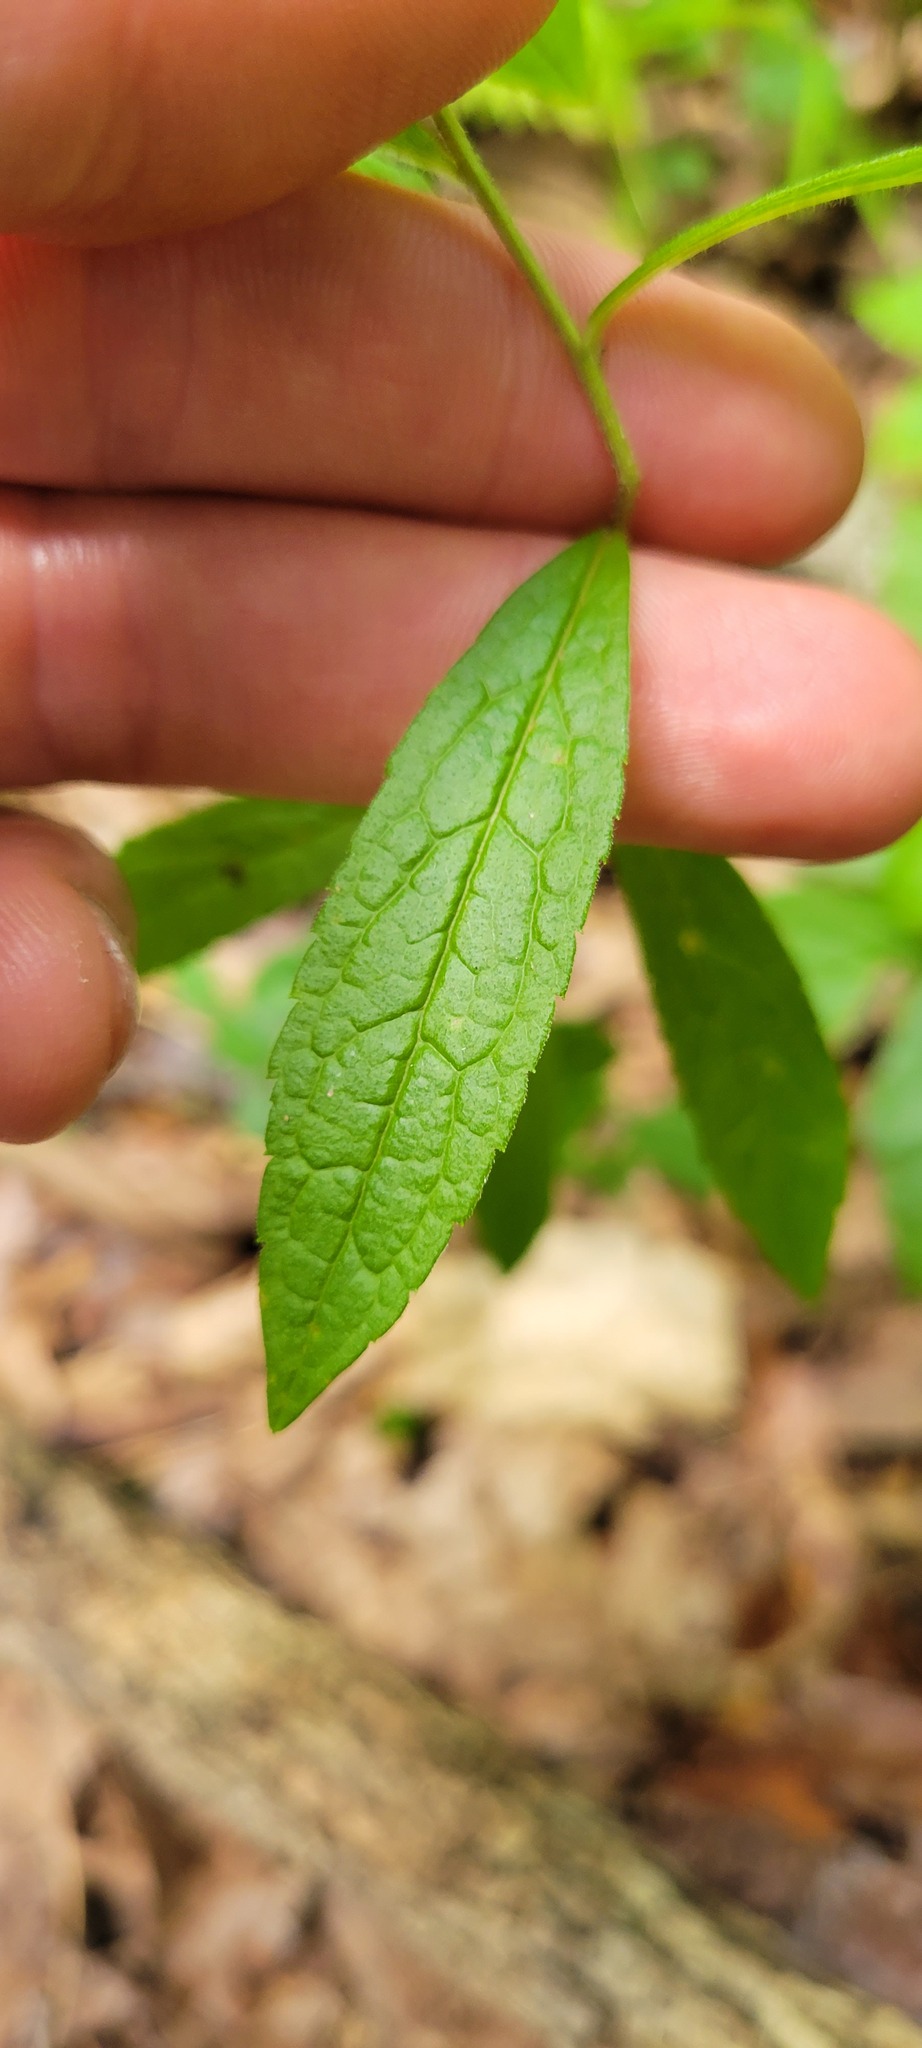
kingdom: Plantae
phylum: Tracheophyta
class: Magnoliopsida
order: Asterales
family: Asteraceae
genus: Solidago
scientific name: Solidago rugosa
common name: Rough-stemmed goldenrod
